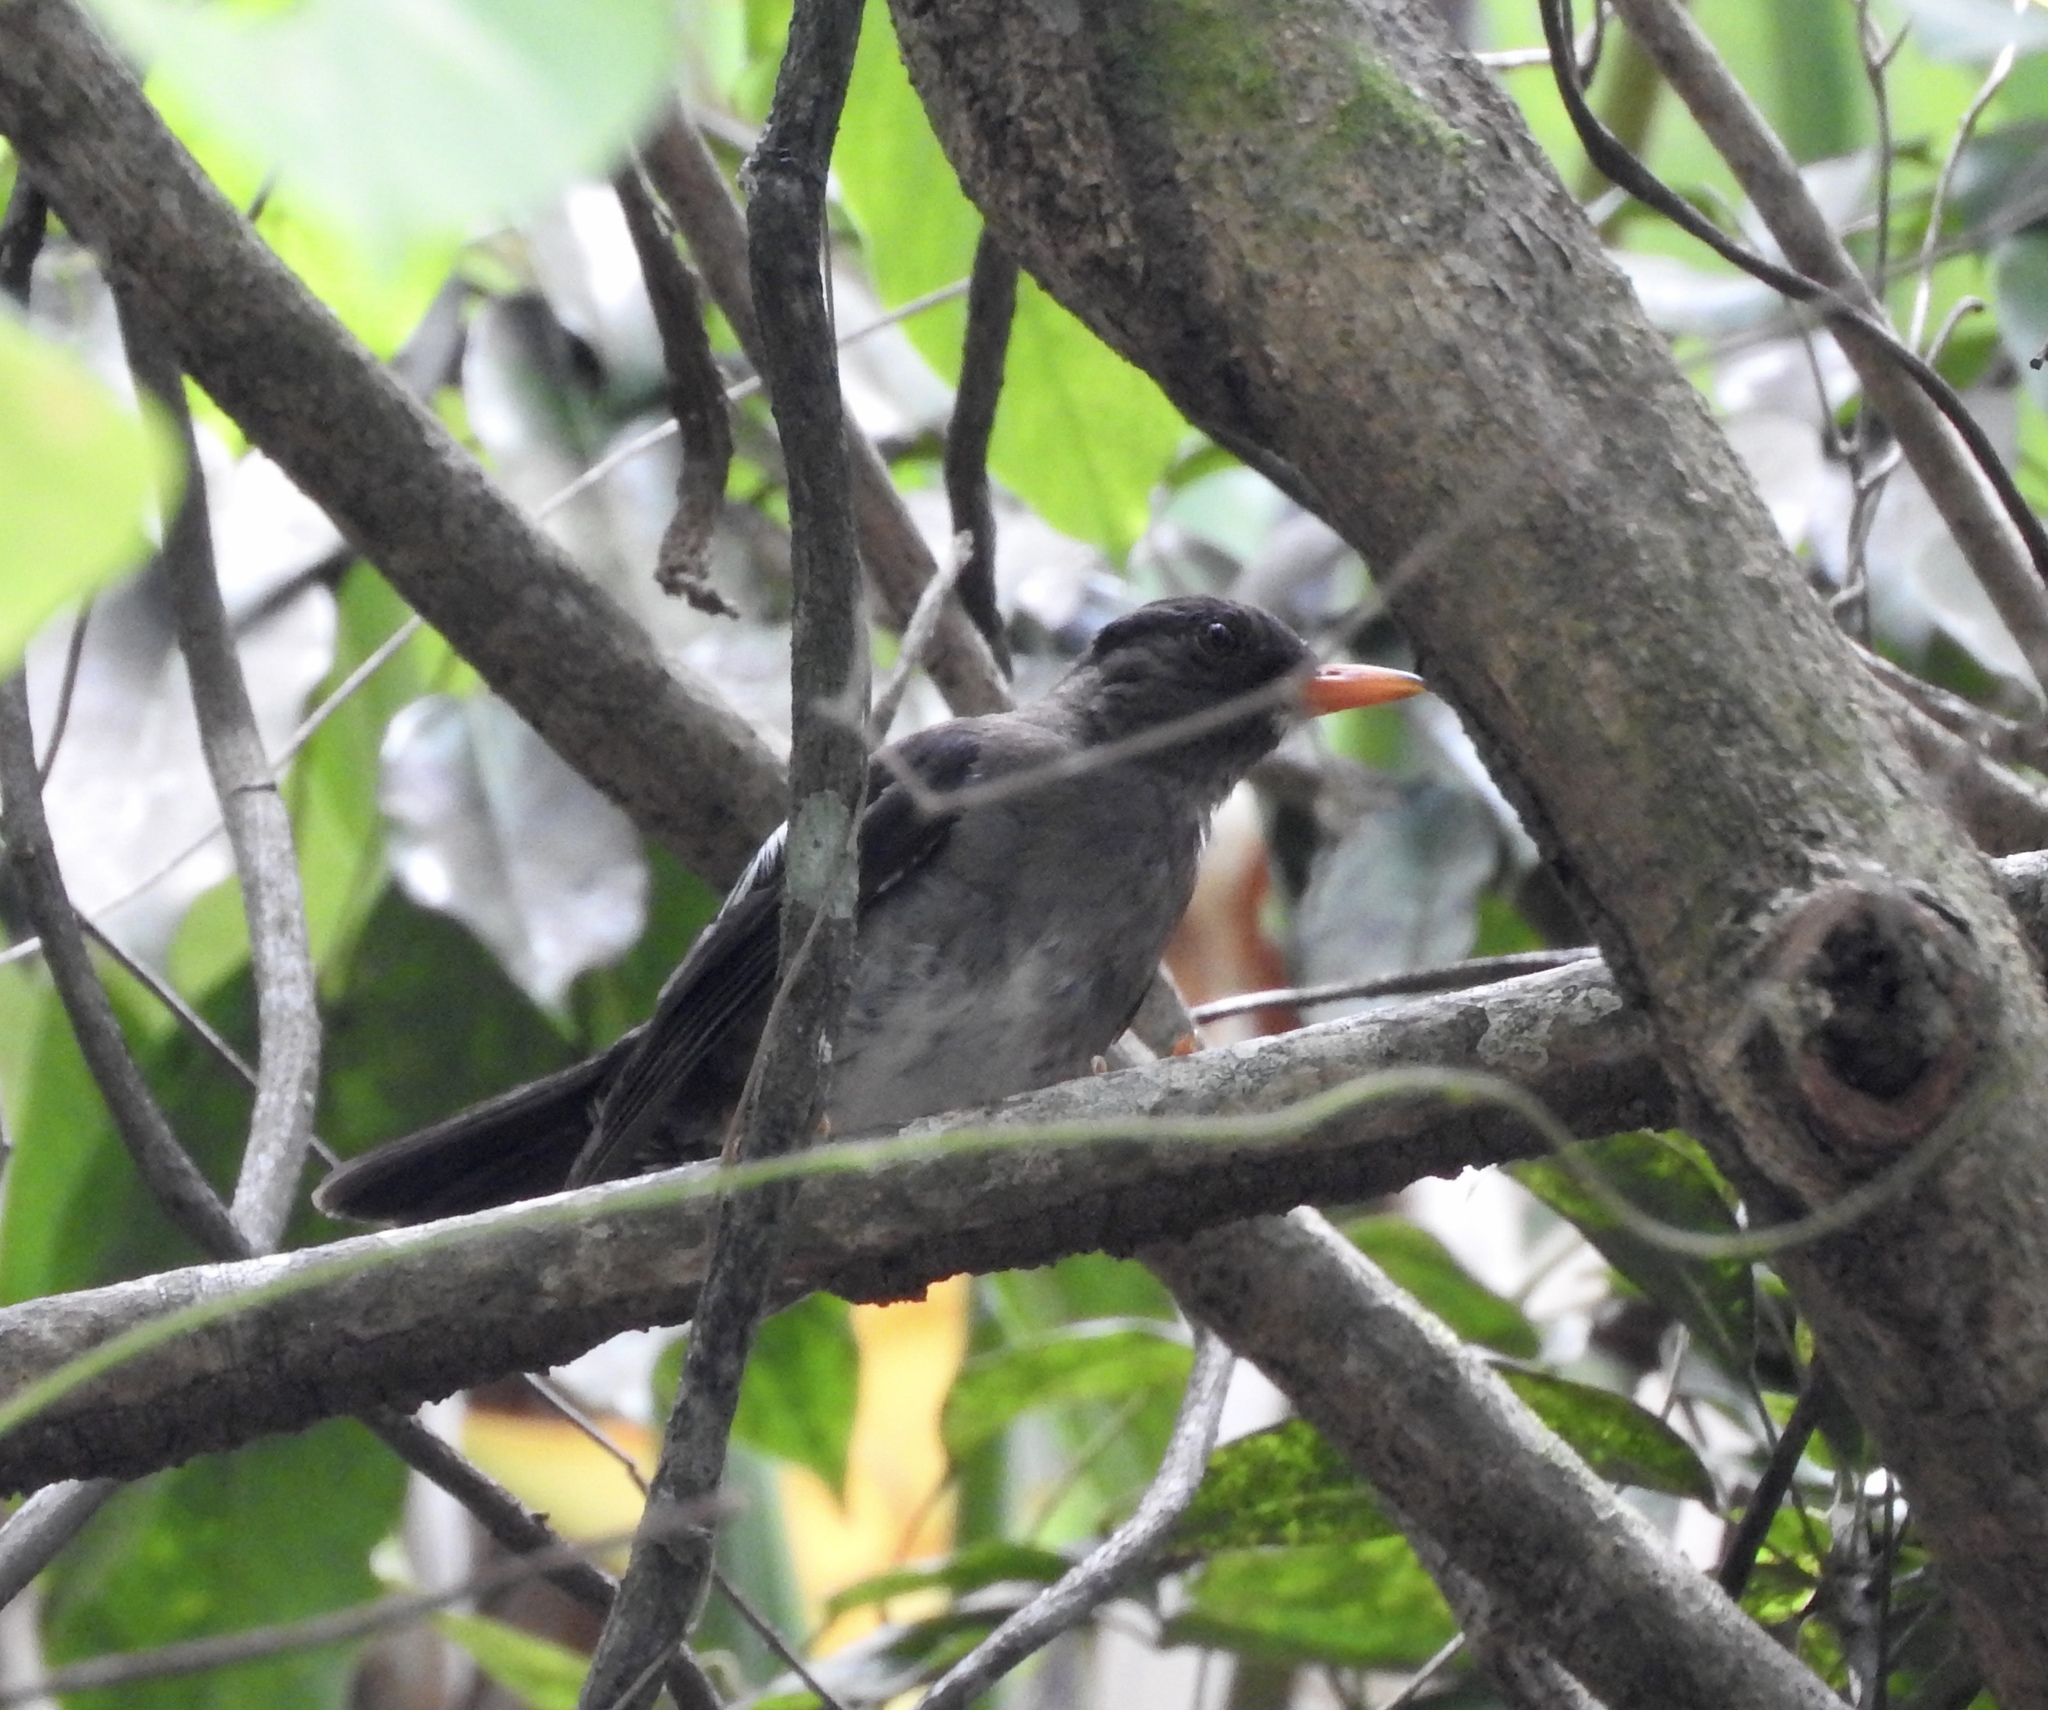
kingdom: Animalia
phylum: Chordata
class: Aves
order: Passeriformes
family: Turdidae
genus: Turdus
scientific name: Turdus aurantius
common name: White-chinned thrush
